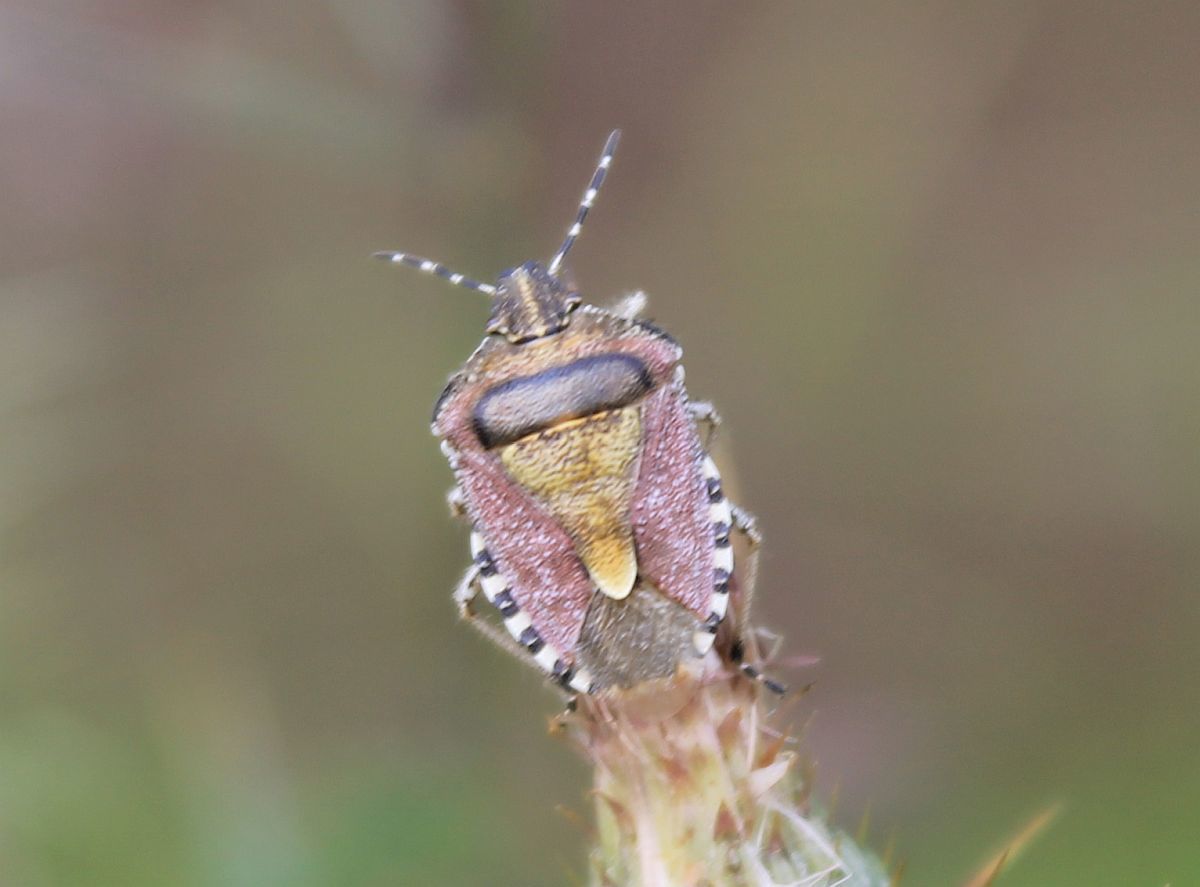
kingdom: Animalia
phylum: Arthropoda
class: Insecta
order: Hemiptera
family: Pentatomidae
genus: Dolycoris
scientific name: Dolycoris baccarum
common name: Sloe bug
